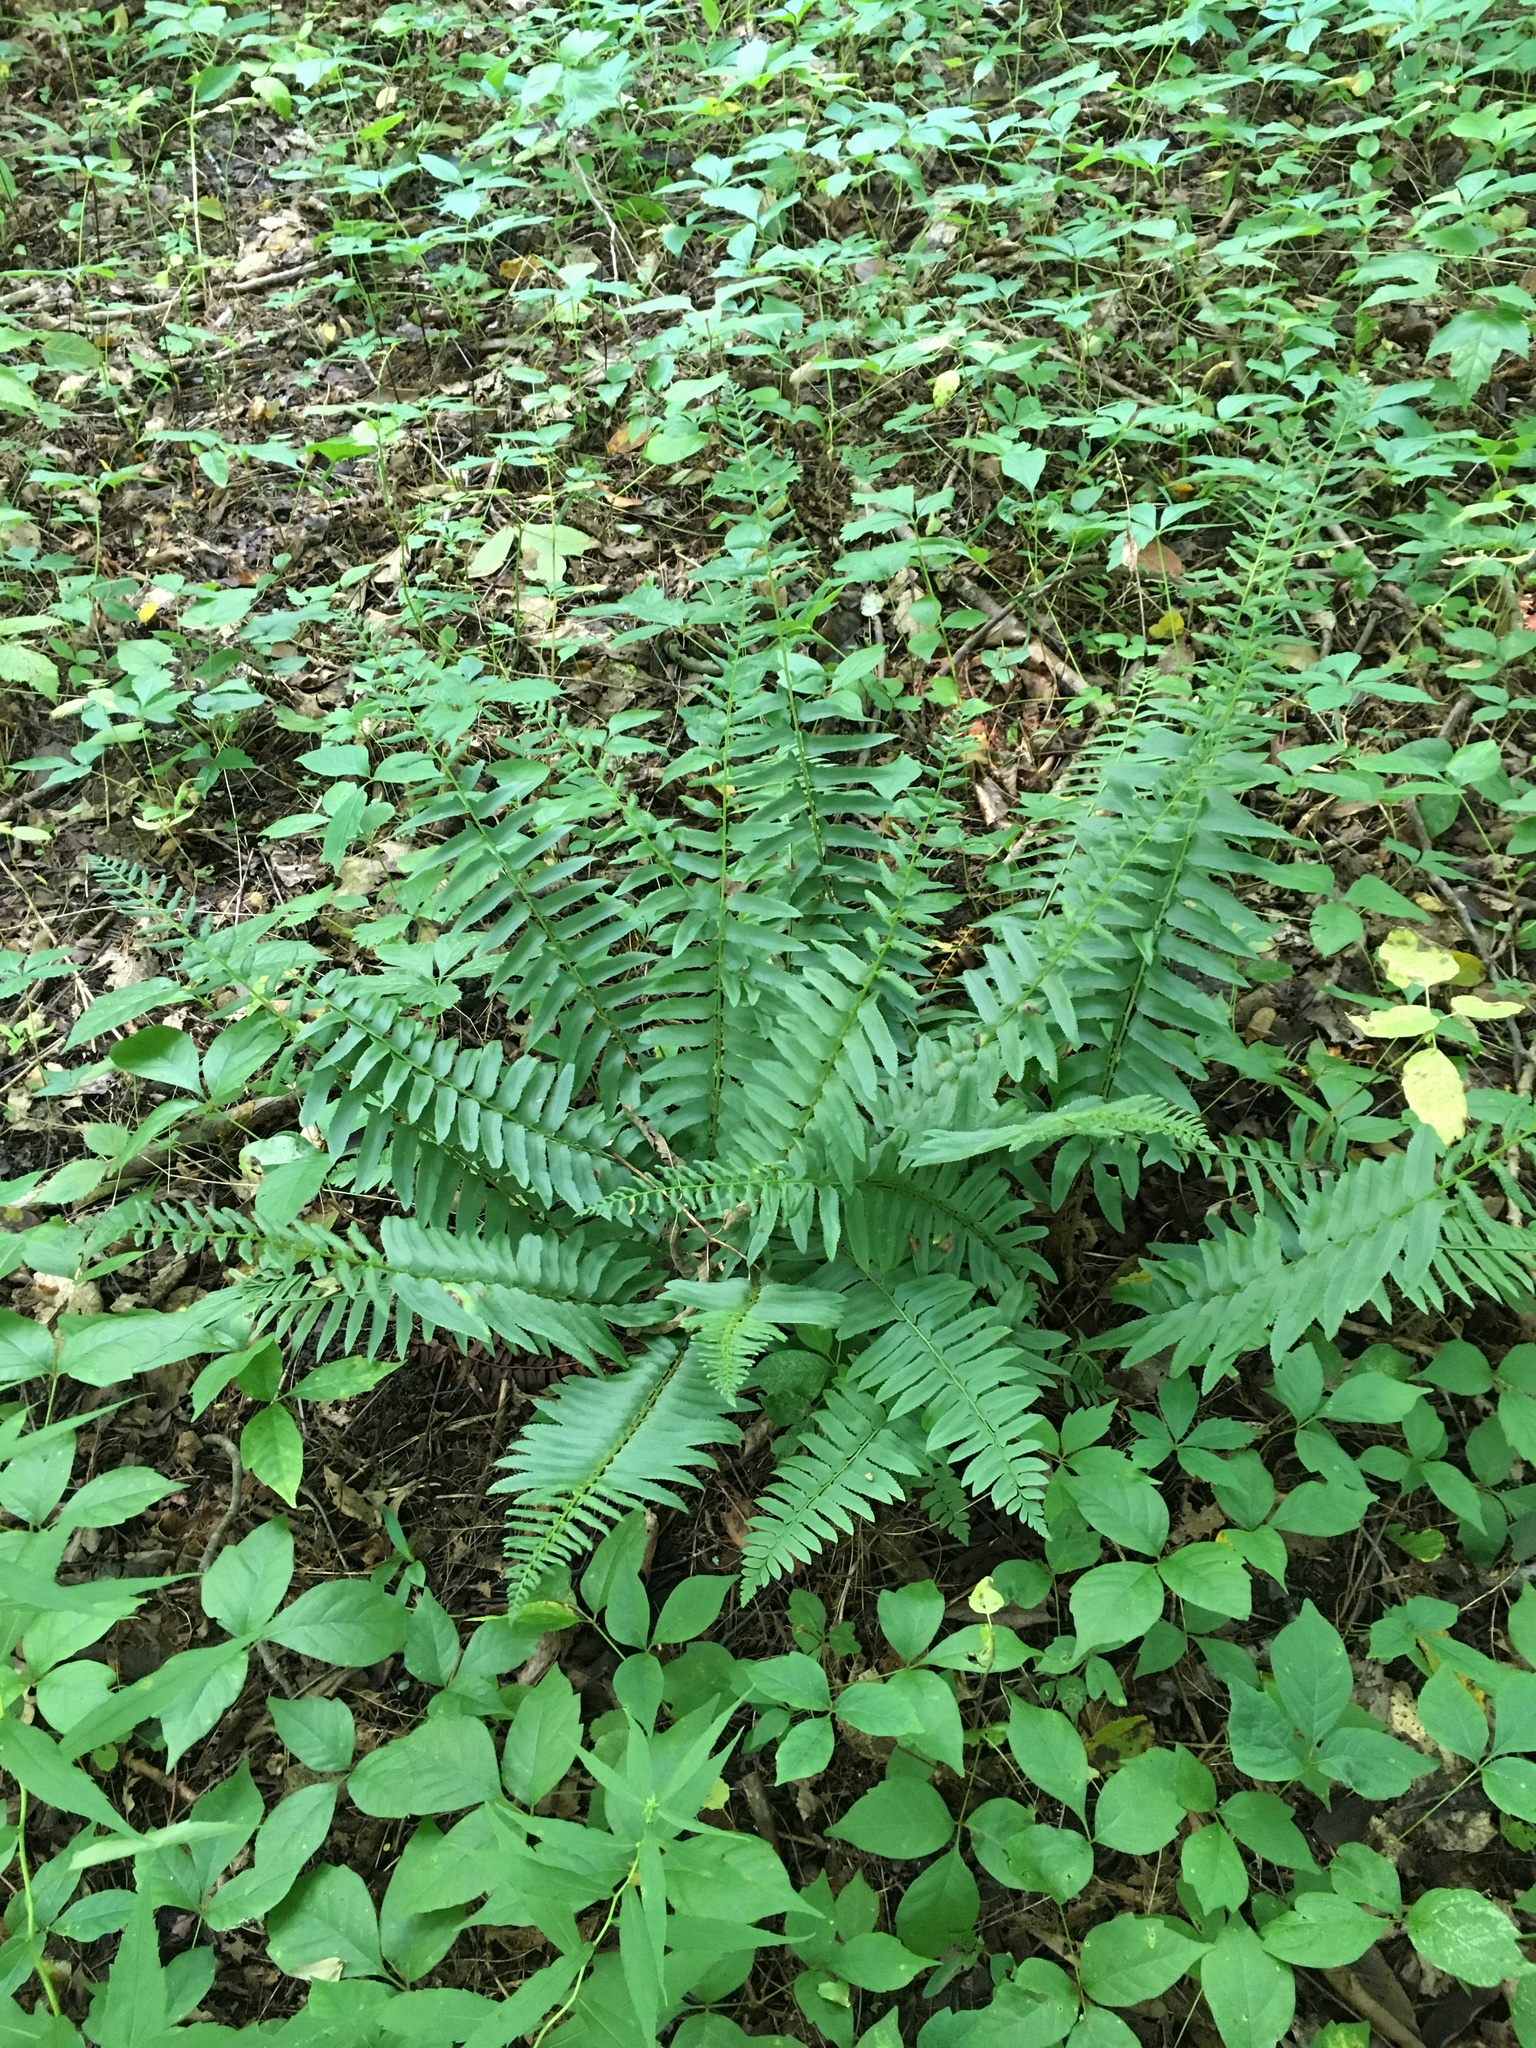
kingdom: Plantae
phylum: Tracheophyta
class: Polypodiopsida
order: Polypodiales
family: Dryopteridaceae
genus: Polystichum
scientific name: Polystichum acrostichoides
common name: Christmas fern
